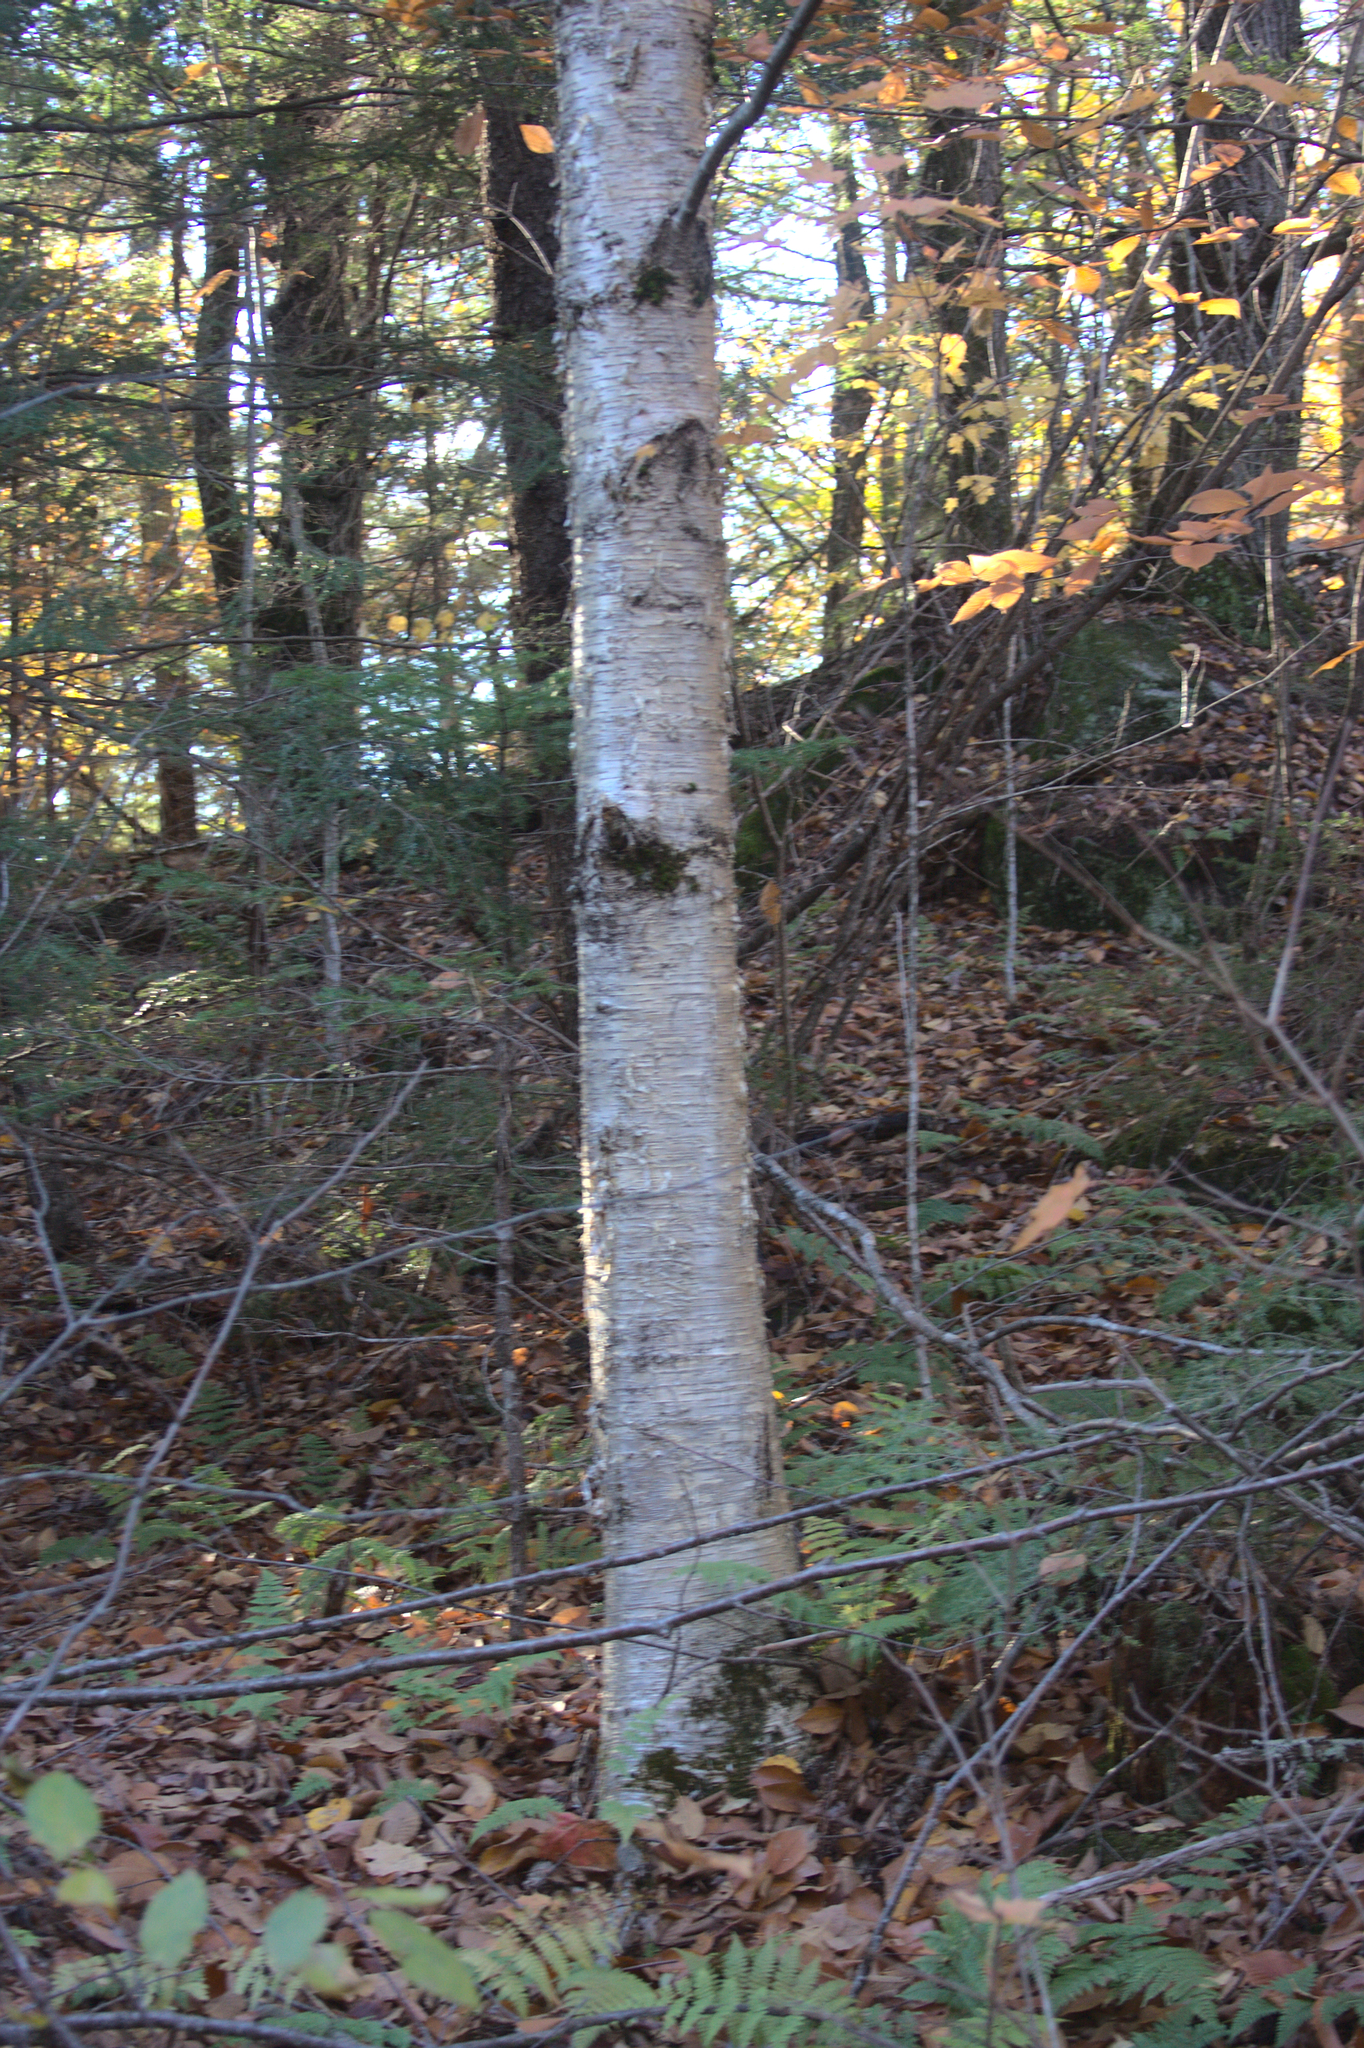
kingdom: Plantae
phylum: Tracheophyta
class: Magnoliopsida
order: Fagales
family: Betulaceae
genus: Betula
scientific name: Betula alleghaniensis
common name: Yellow birch
